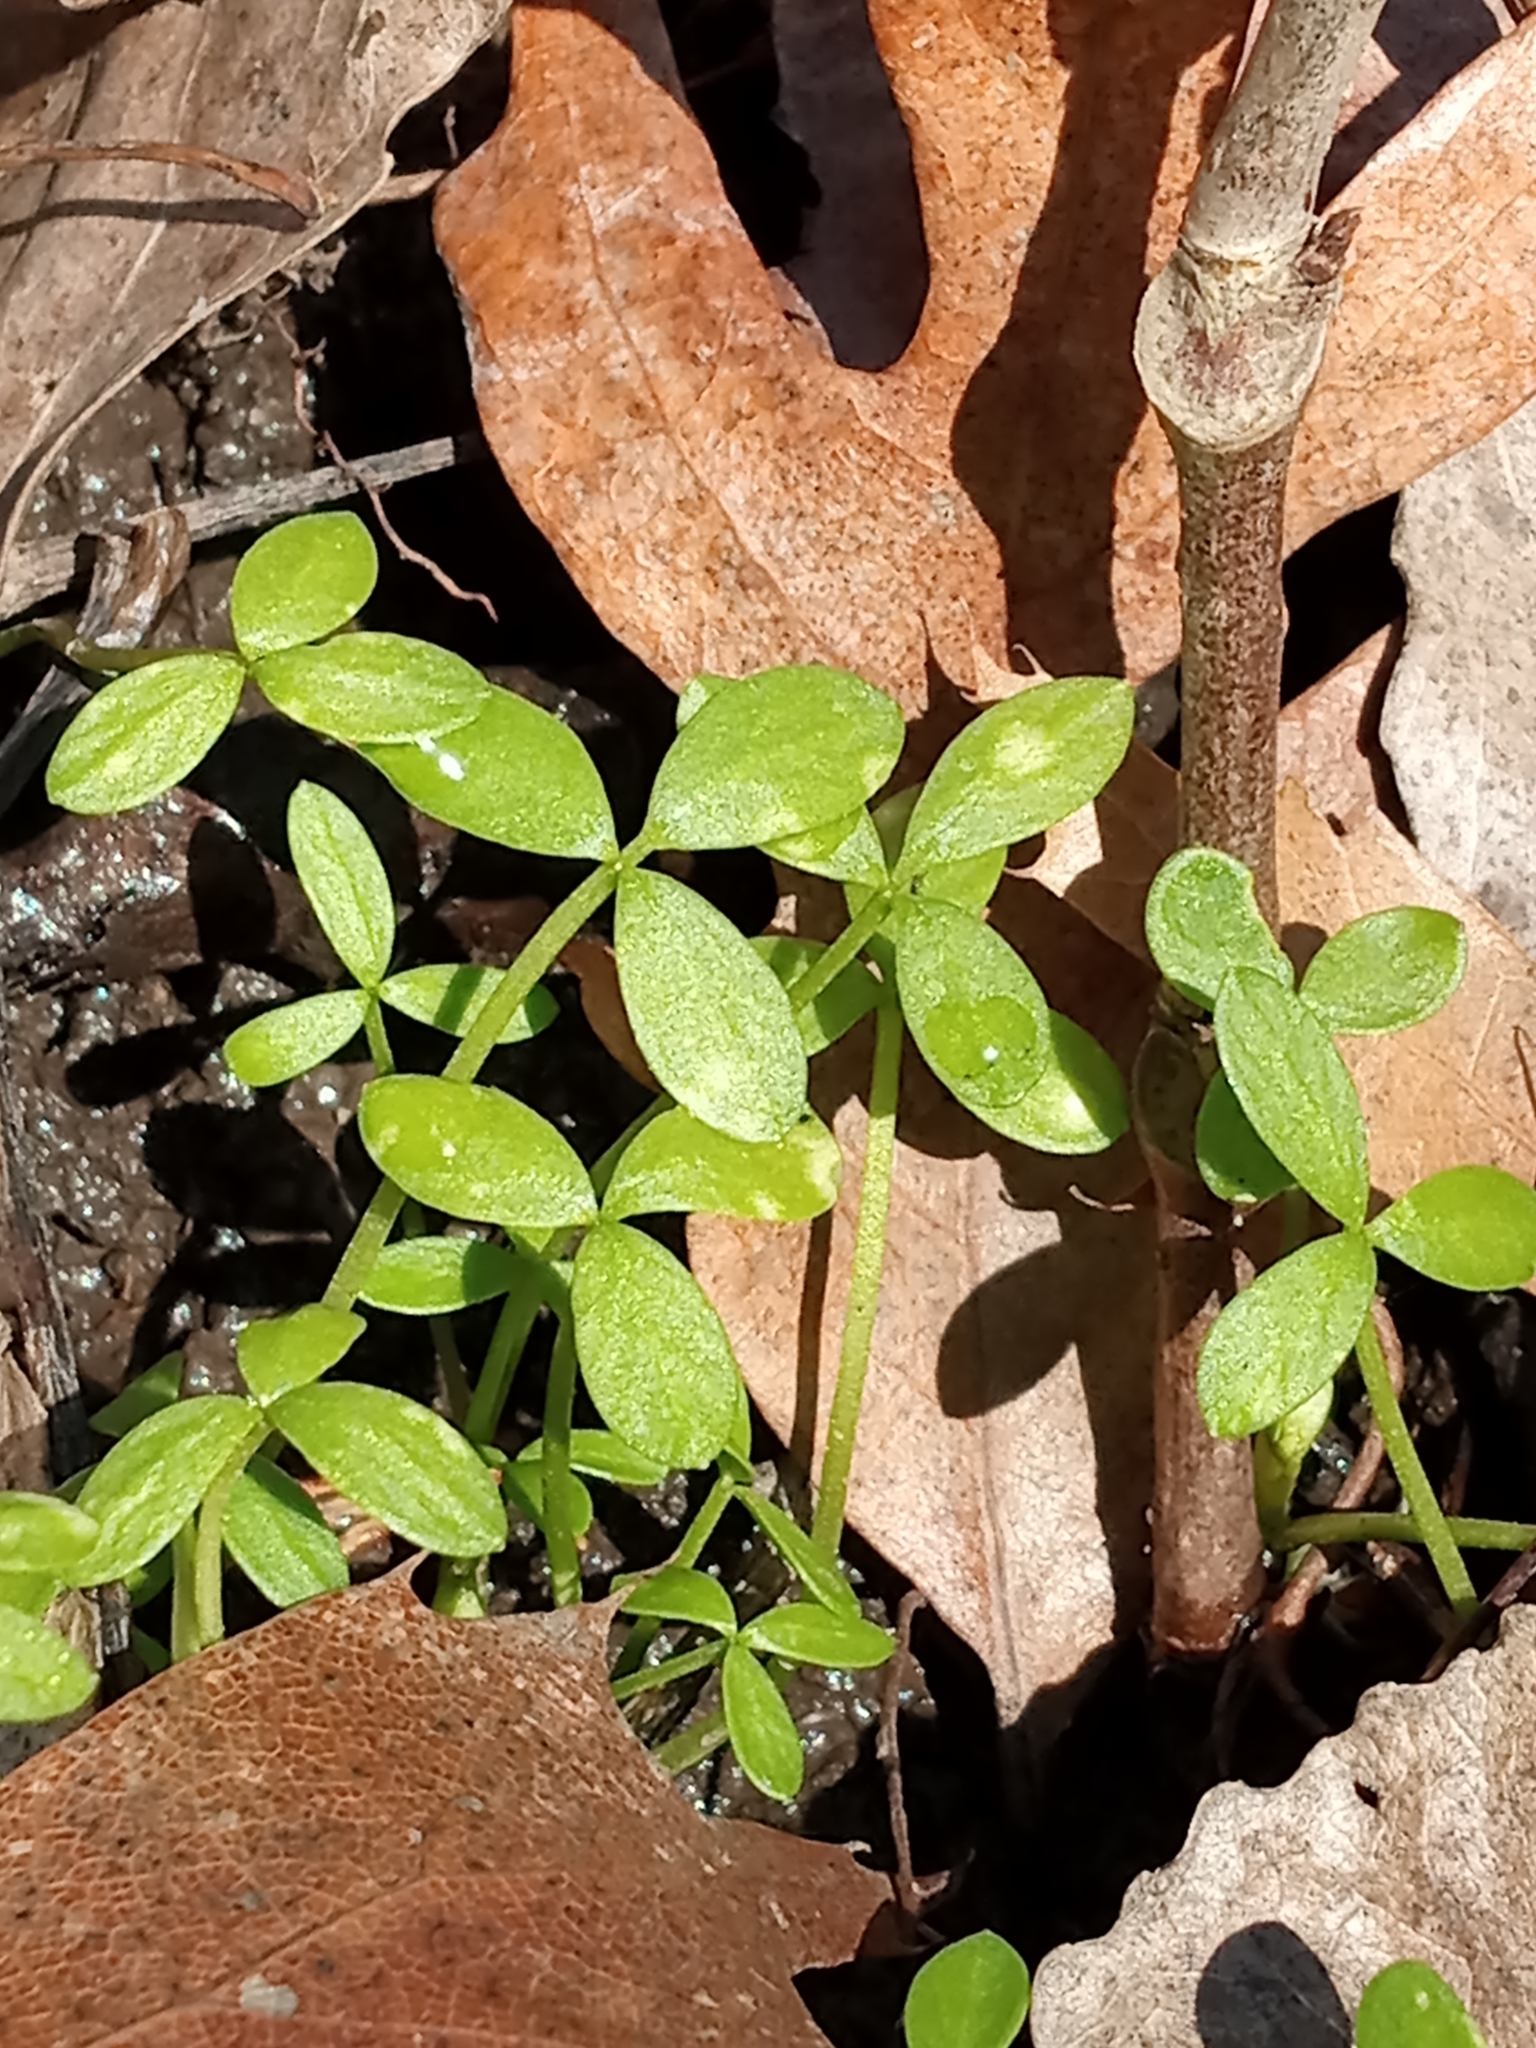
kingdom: Plantae
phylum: Tracheophyta
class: Magnoliopsida
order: Brassicales
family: Limnanthaceae
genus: Floerkea
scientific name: Floerkea proserpinacoides
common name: False mermaid
